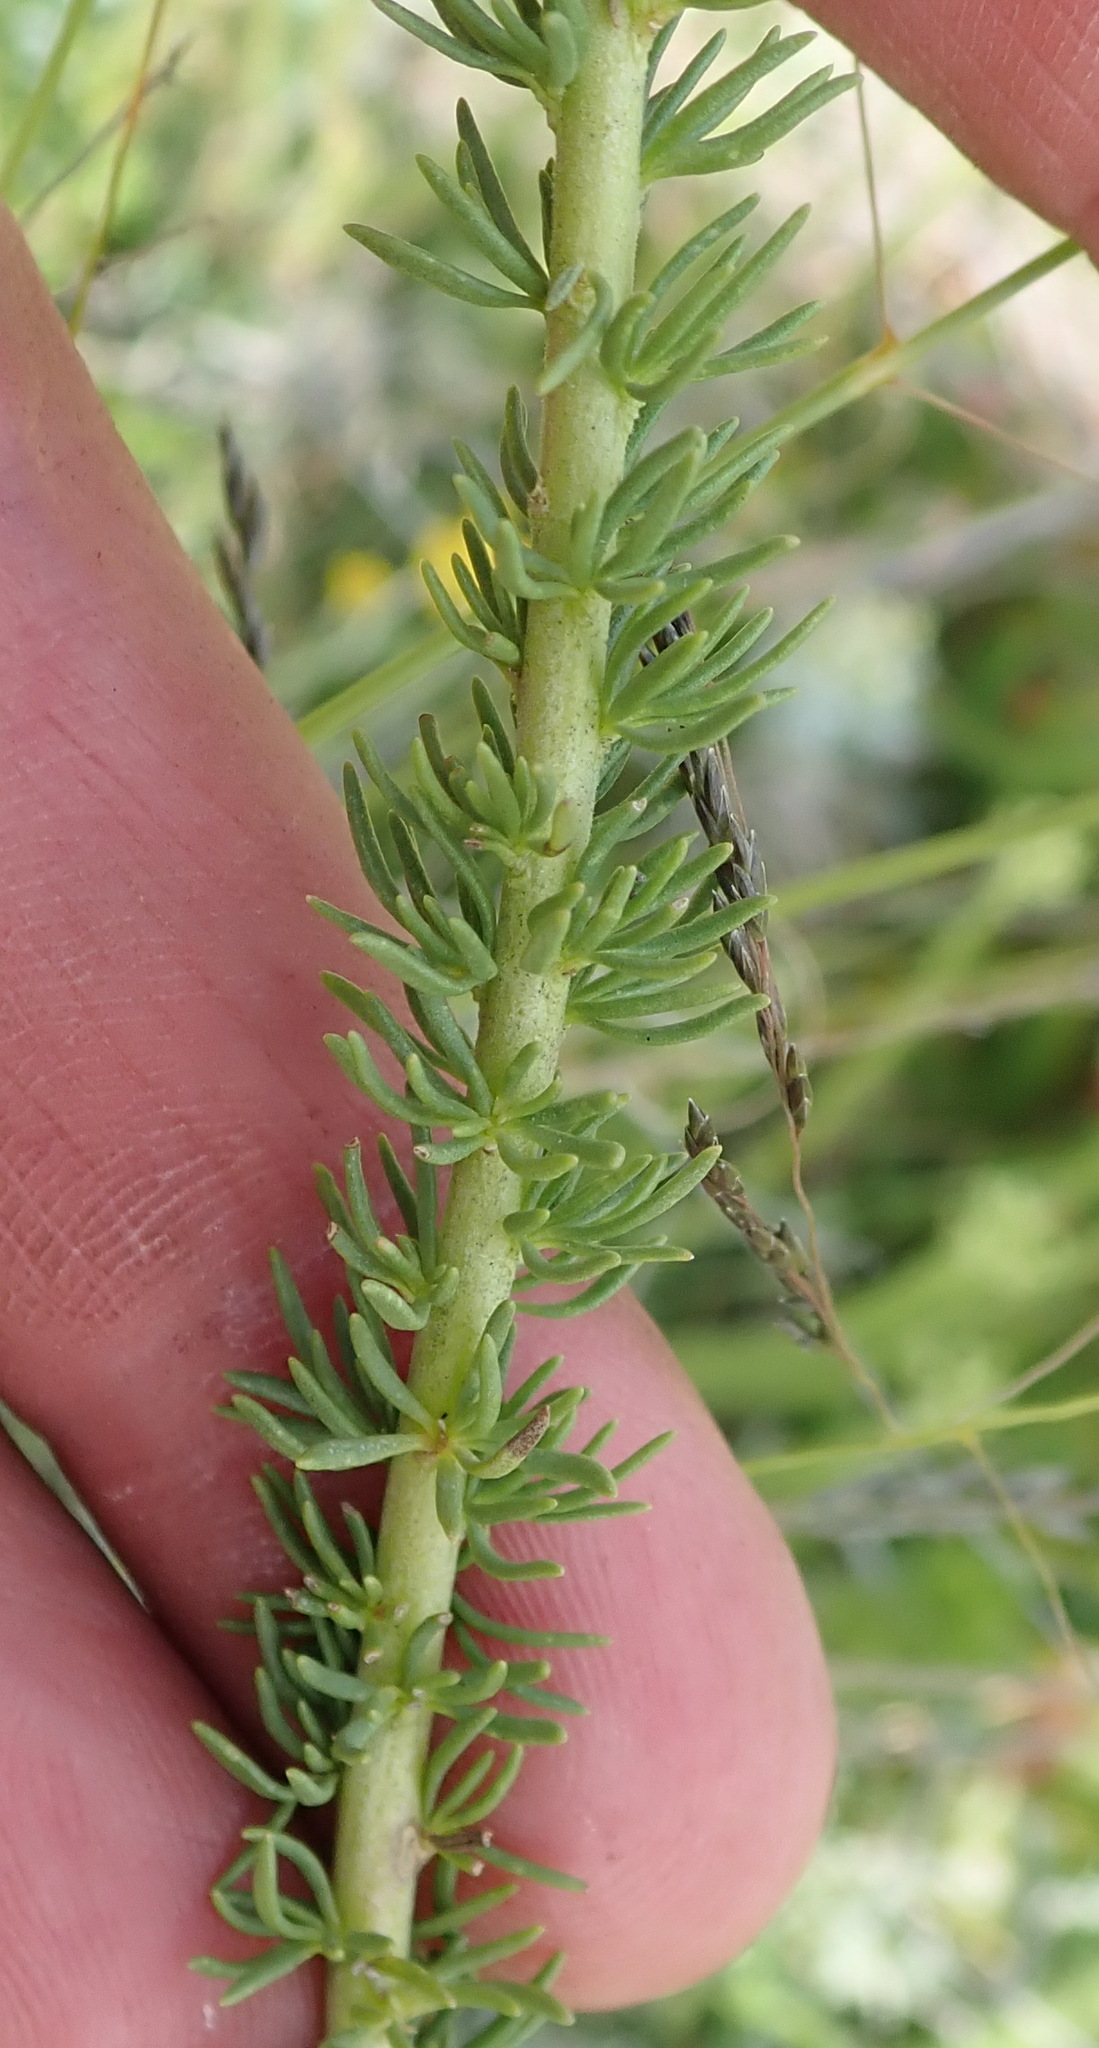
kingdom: Plantae
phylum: Tracheophyta
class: Magnoliopsida
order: Lamiales
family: Scrophulariaceae
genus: Selago
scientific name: Selago dolosa
